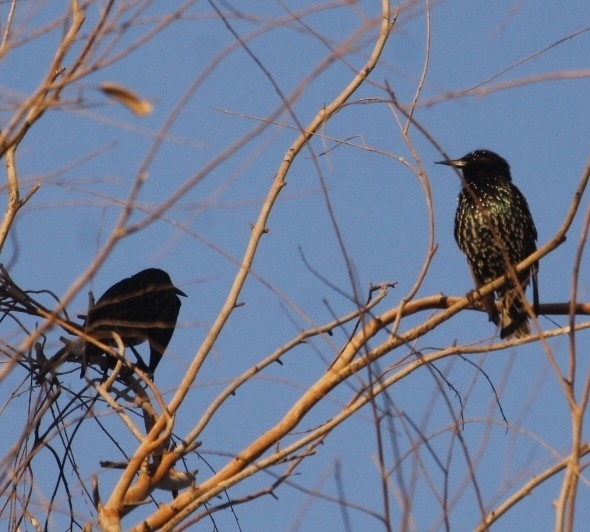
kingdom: Animalia
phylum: Chordata
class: Aves
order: Passeriformes
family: Sturnidae
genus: Sturnus
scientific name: Sturnus vulgaris
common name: Common starling
